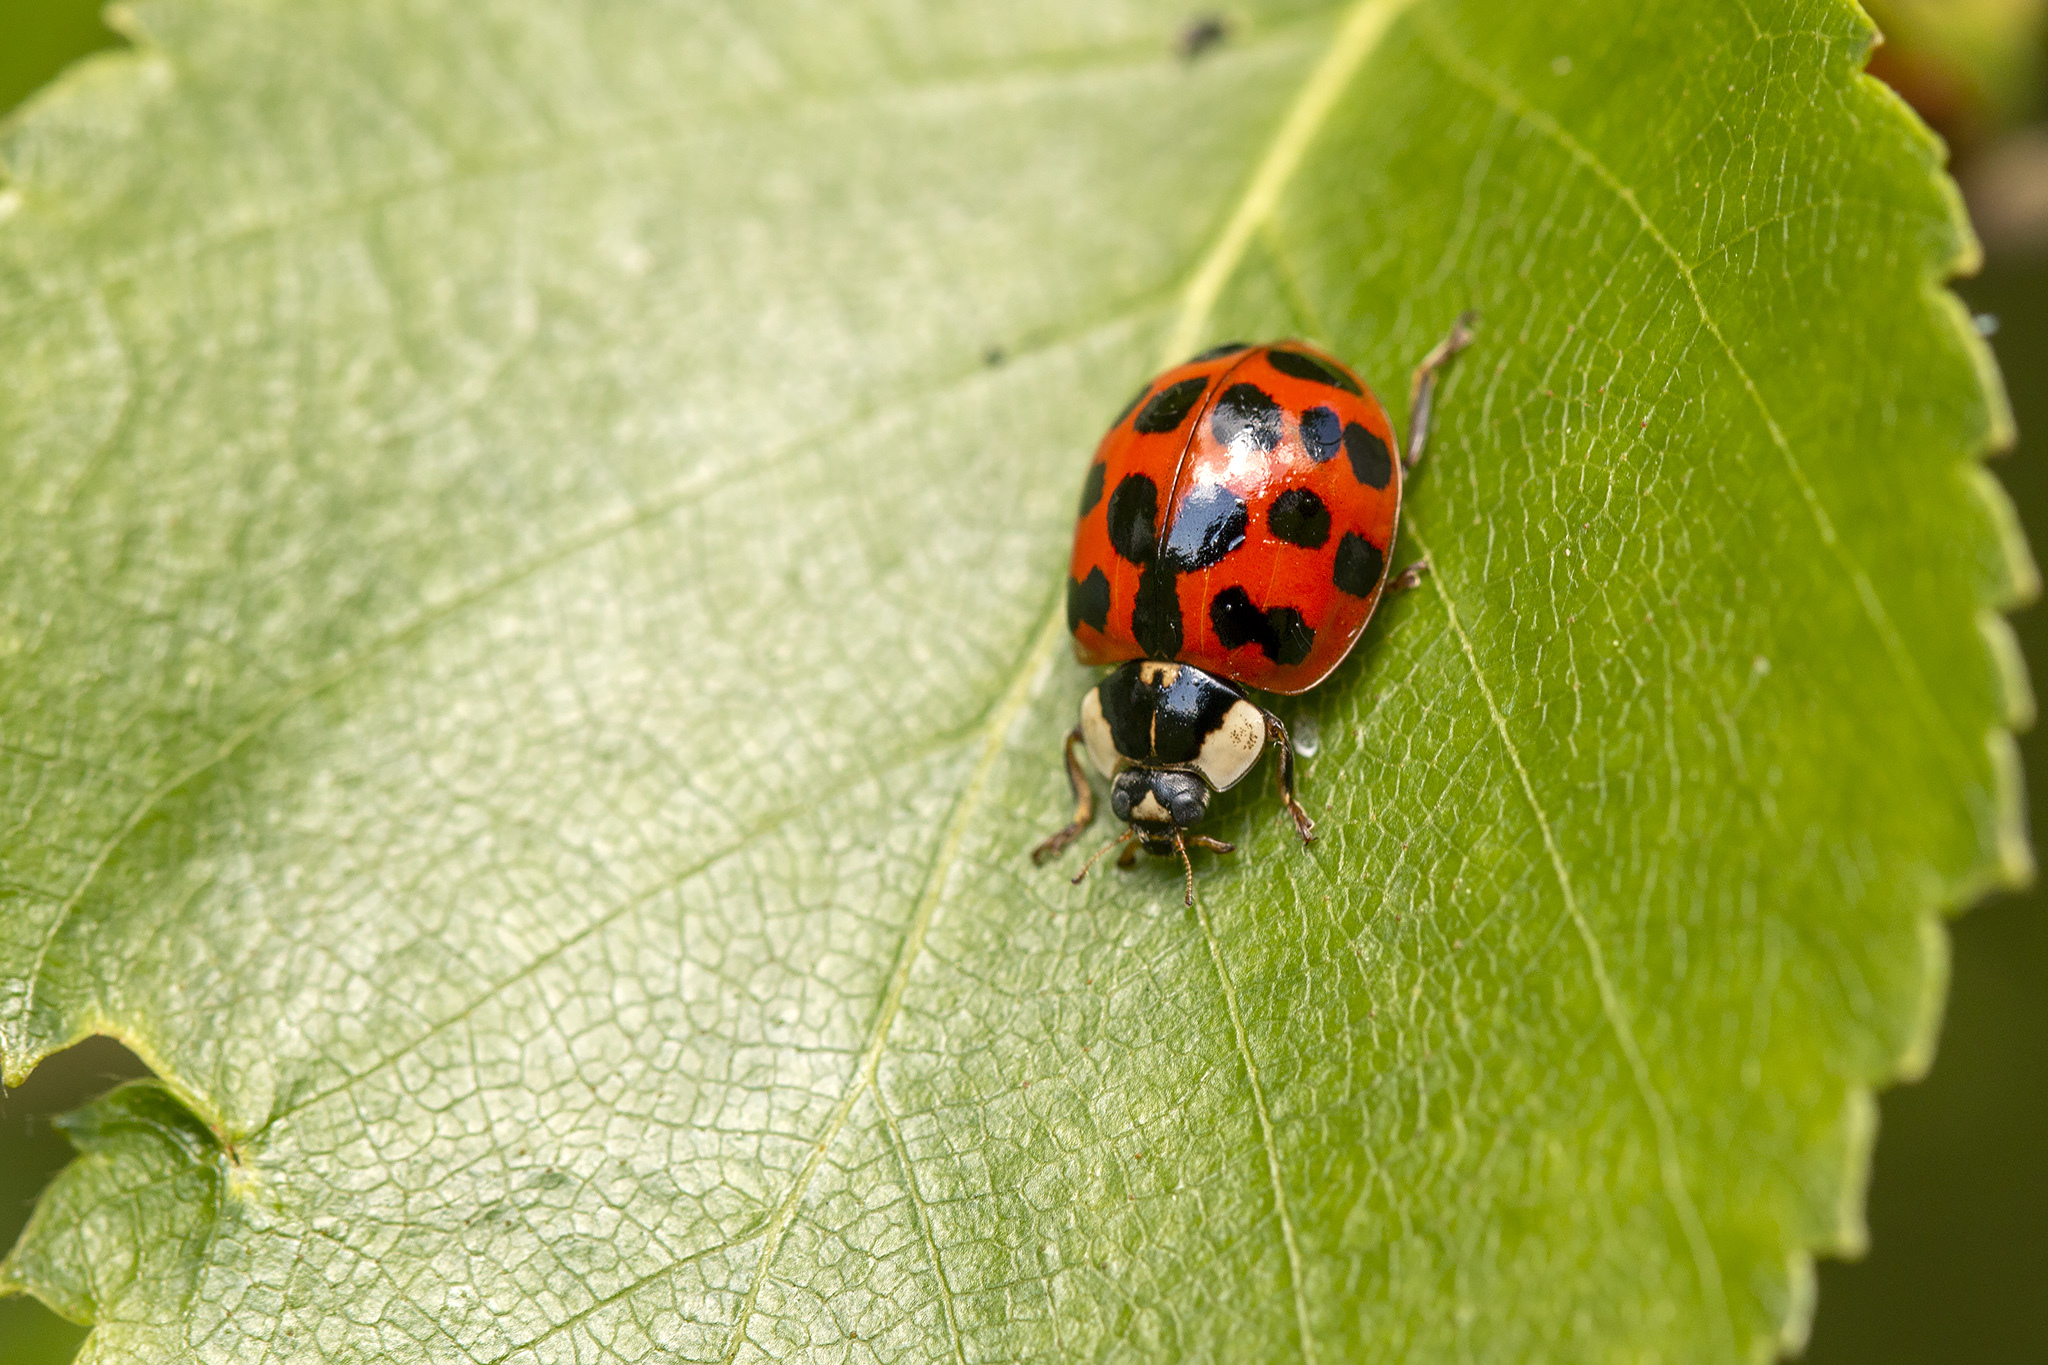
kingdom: Animalia
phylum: Arthropoda
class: Insecta
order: Coleoptera
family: Coccinellidae
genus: Harmonia
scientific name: Harmonia axyridis
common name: Harlequin ladybird
